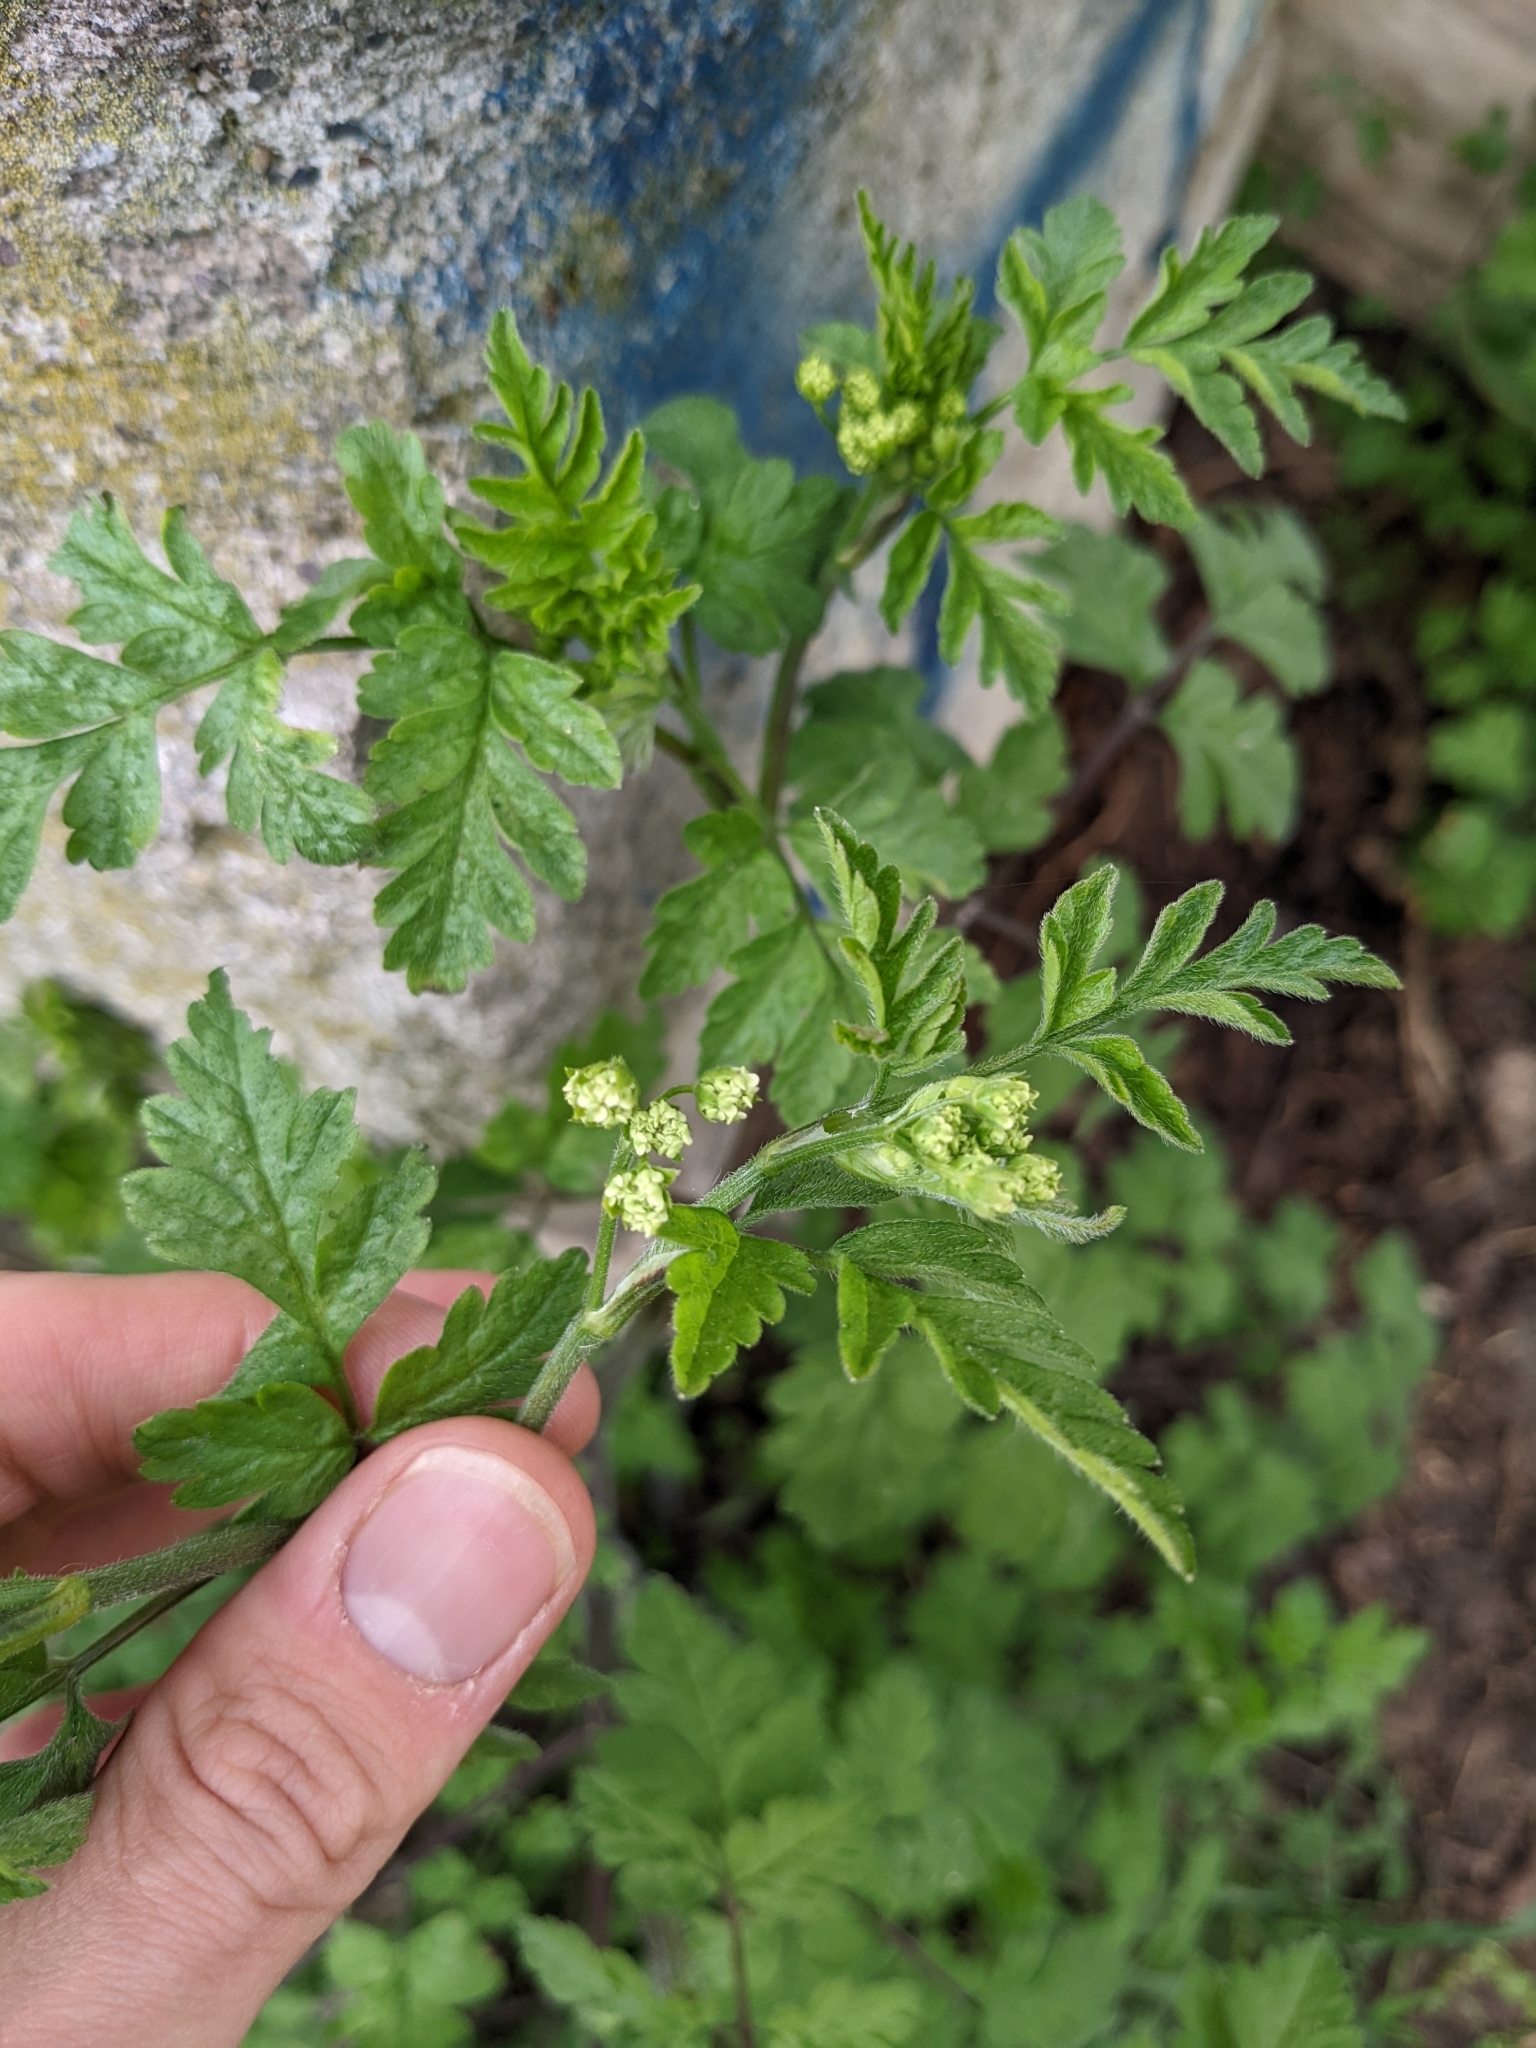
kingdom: Plantae
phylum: Tracheophyta
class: Magnoliopsida
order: Apiales
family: Apiaceae
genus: Chaerophyllum
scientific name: Chaerophyllum temulum
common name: Rough chervil
